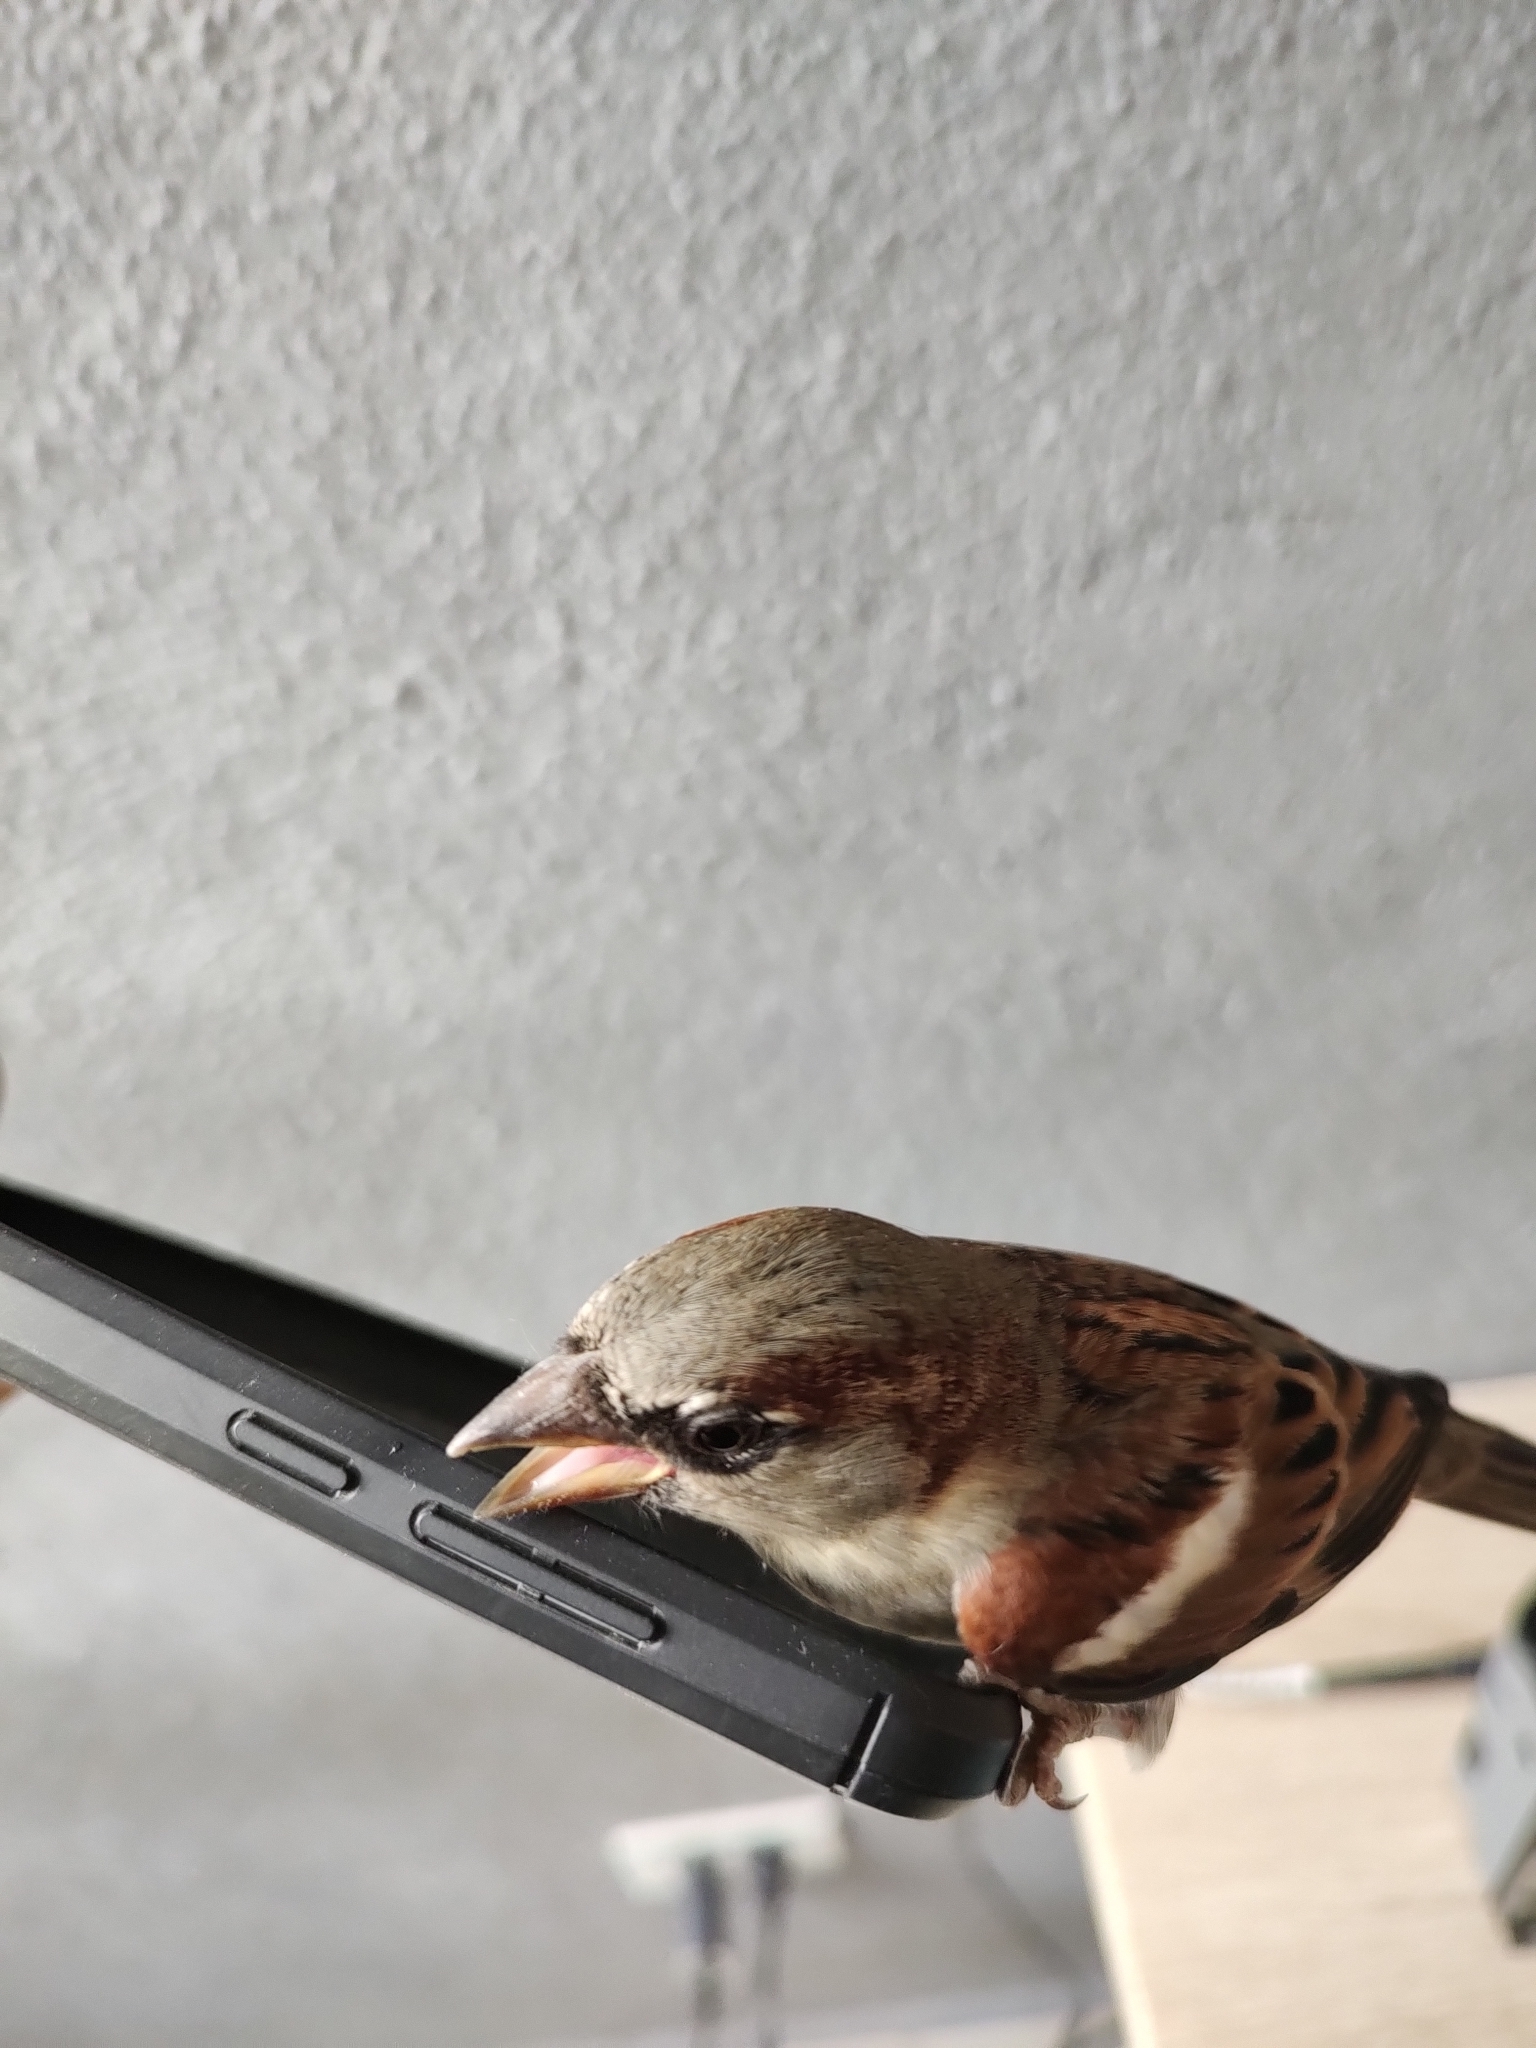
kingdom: Animalia
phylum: Chordata
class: Aves
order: Passeriformes
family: Passeridae
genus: Passer
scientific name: Passer domesticus
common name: House sparrow
